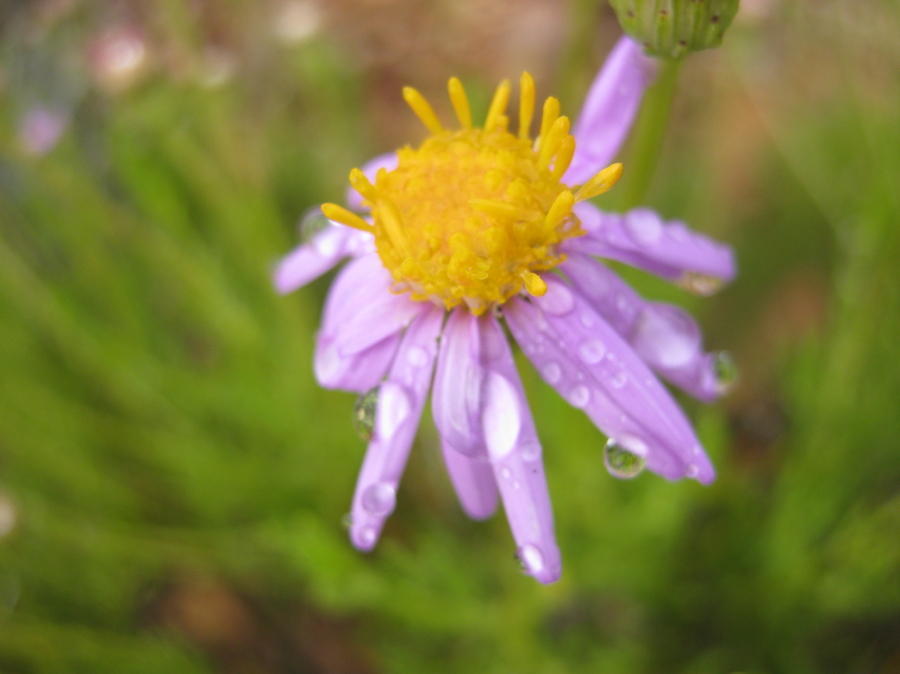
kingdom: Plantae
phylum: Tracheophyta
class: Magnoliopsida
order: Asterales
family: Asteraceae
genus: Felicia
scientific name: Felicia filifolia
